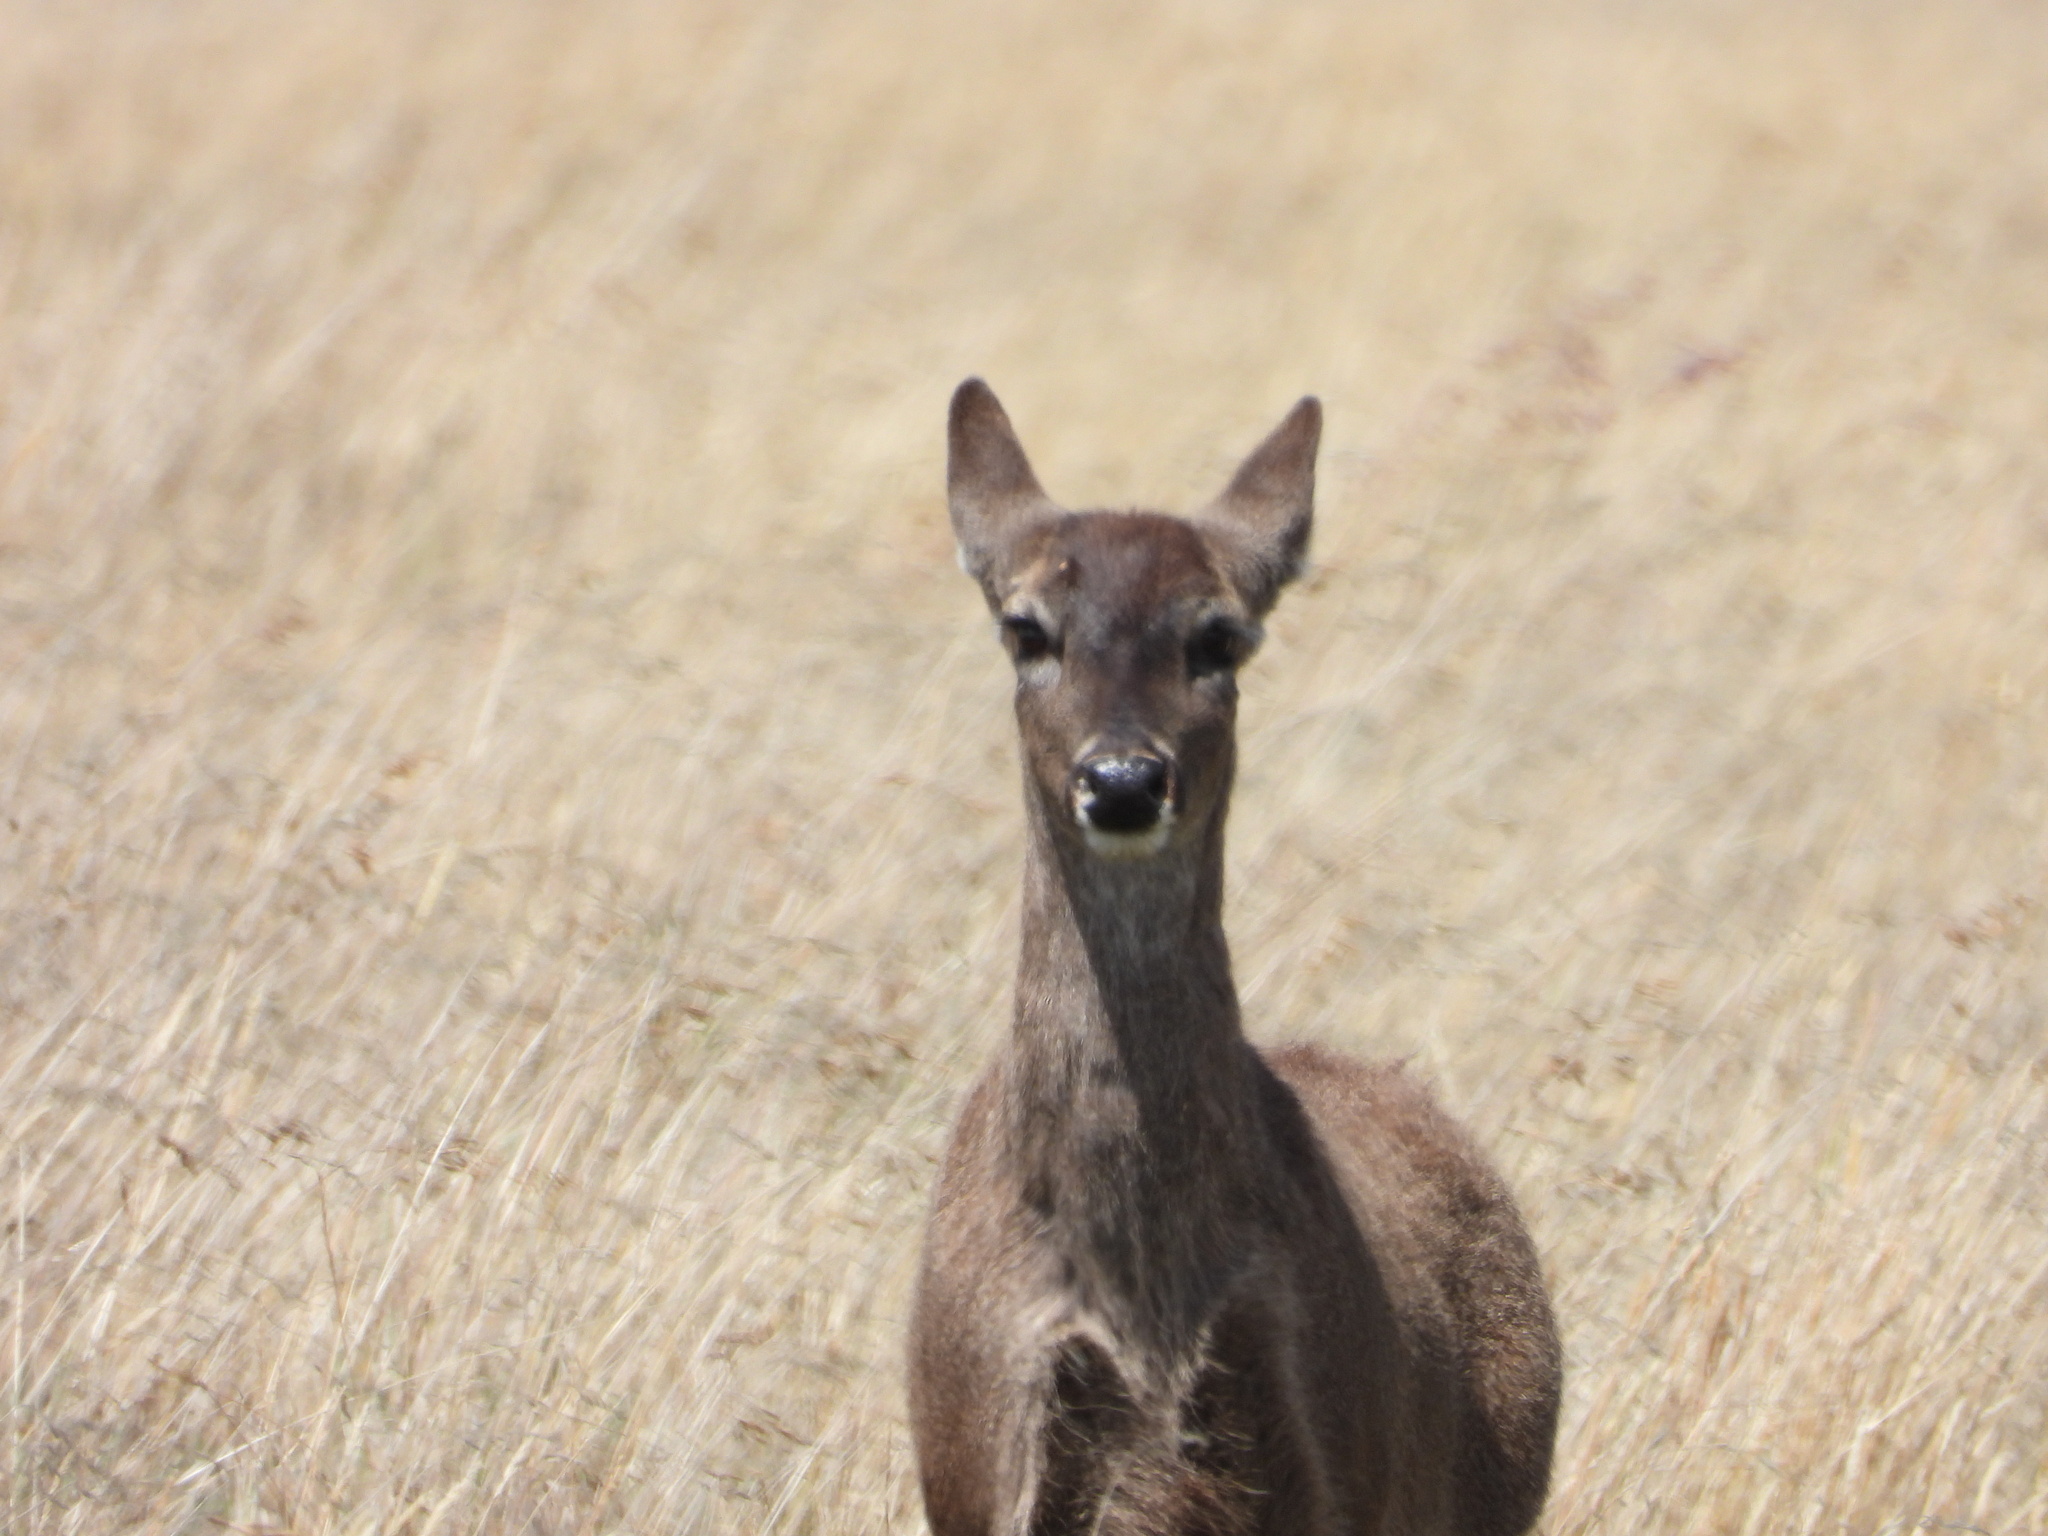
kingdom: Animalia
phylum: Chordata
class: Mammalia
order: Artiodactyla
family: Cervidae
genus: Odocoileus
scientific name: Odocoileus virginianus
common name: White-tailed deer
